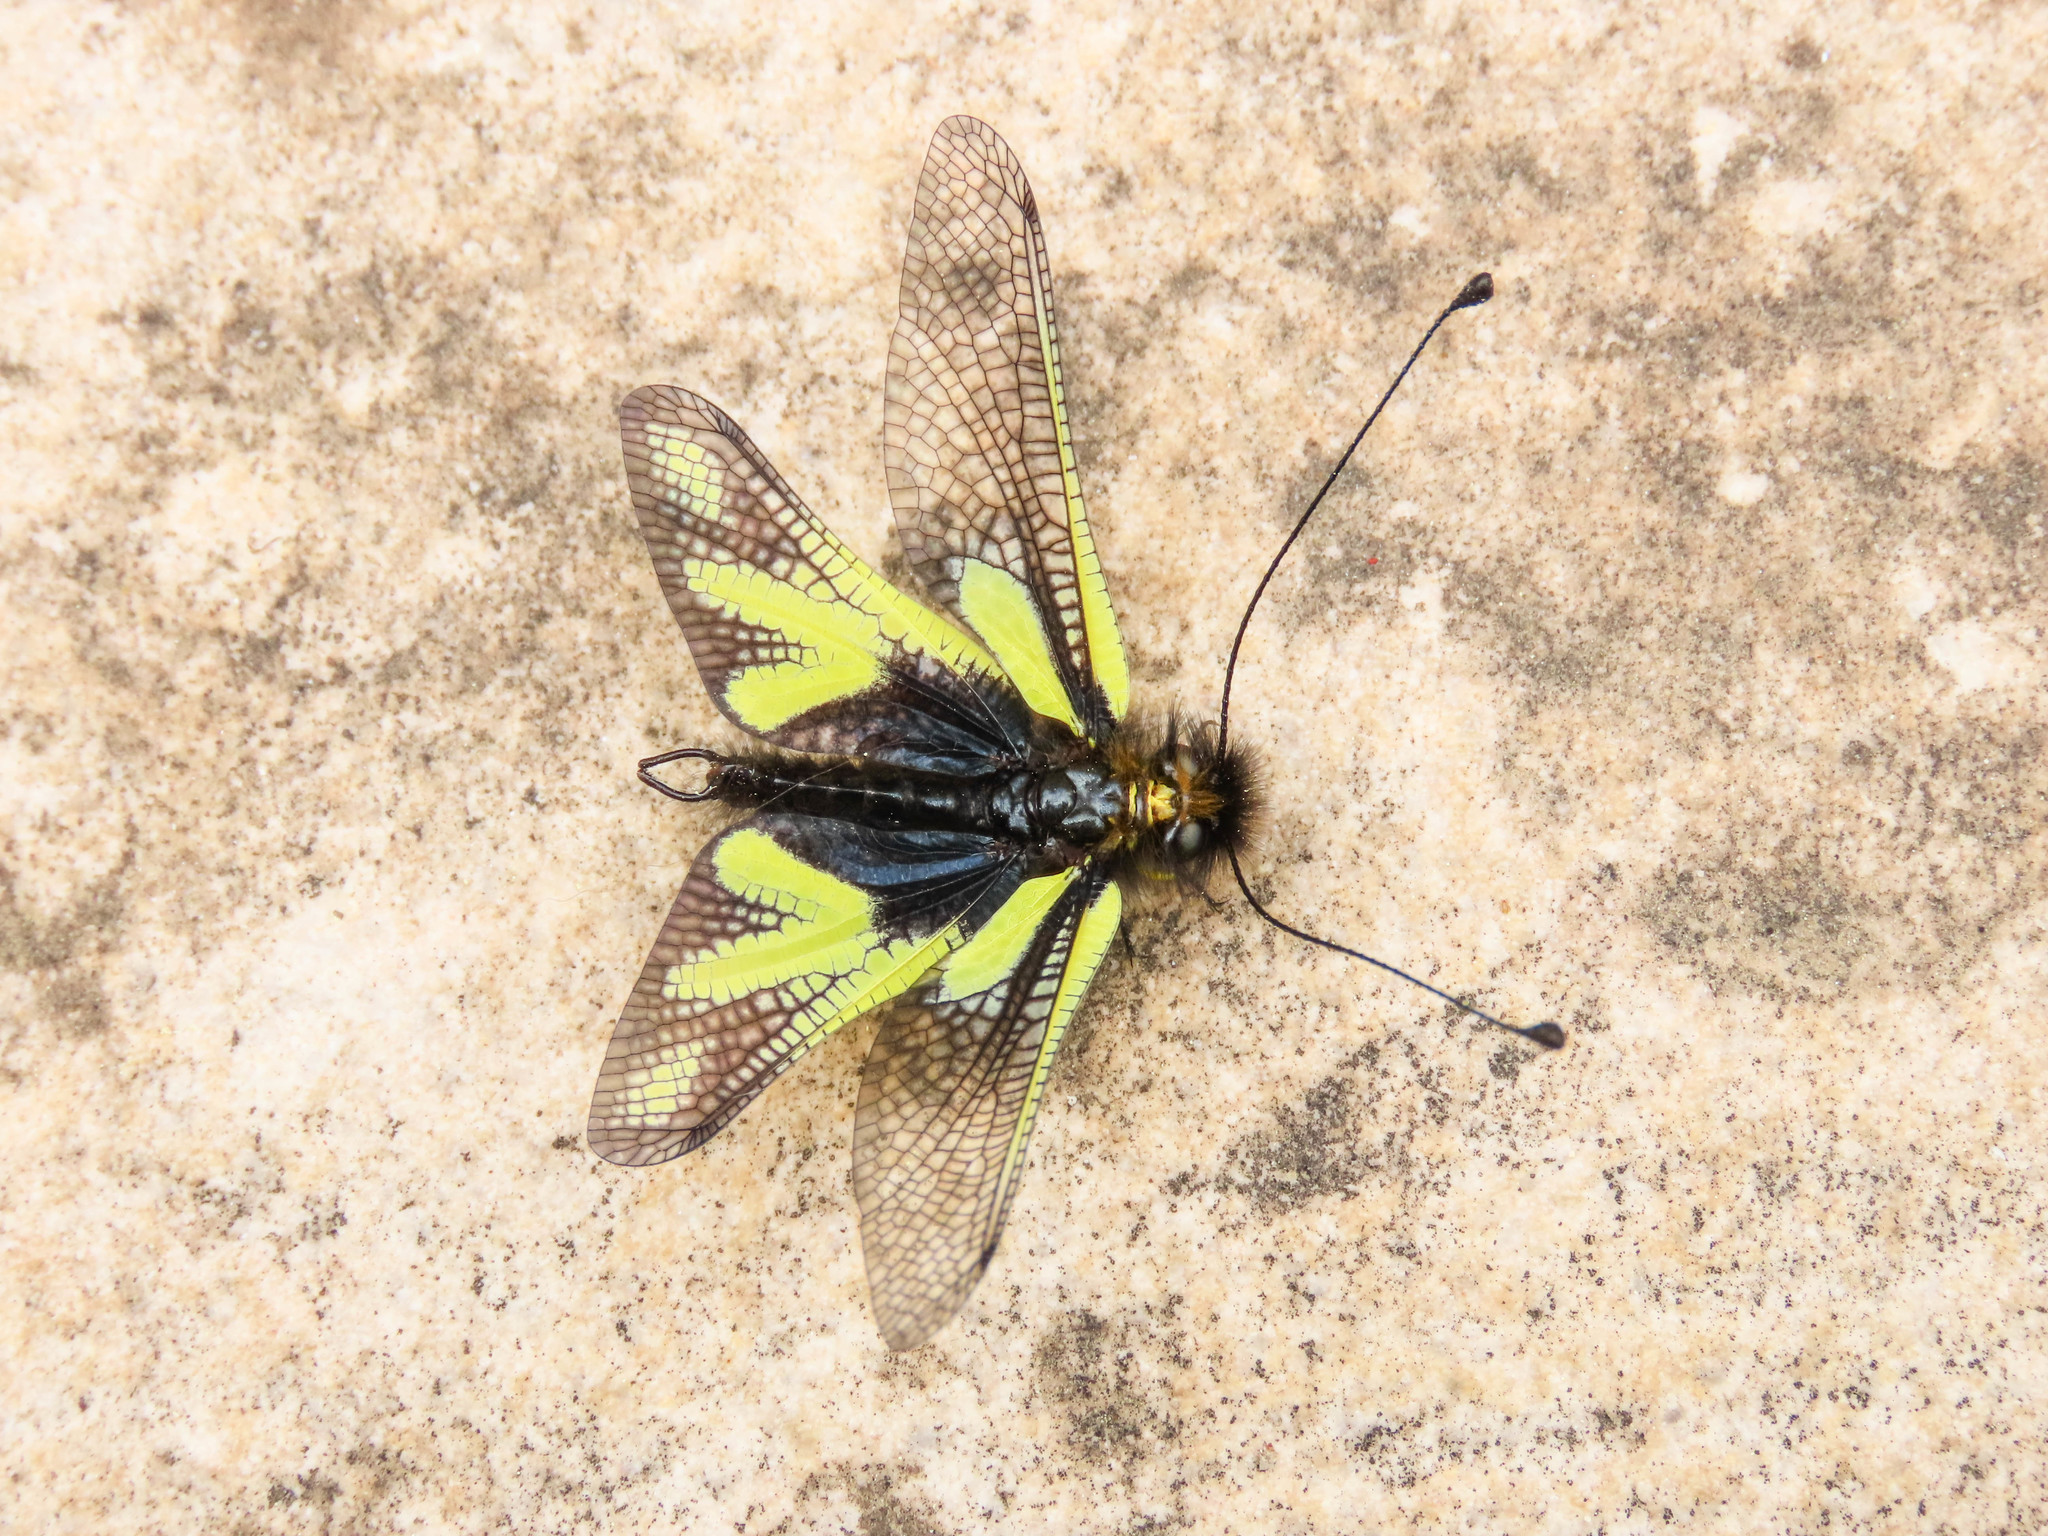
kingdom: Animalia
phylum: Arthropoda
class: Insecta
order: Neuroptera
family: Ascalaphidae
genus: Libelloides
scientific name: Libelloides coccajus
